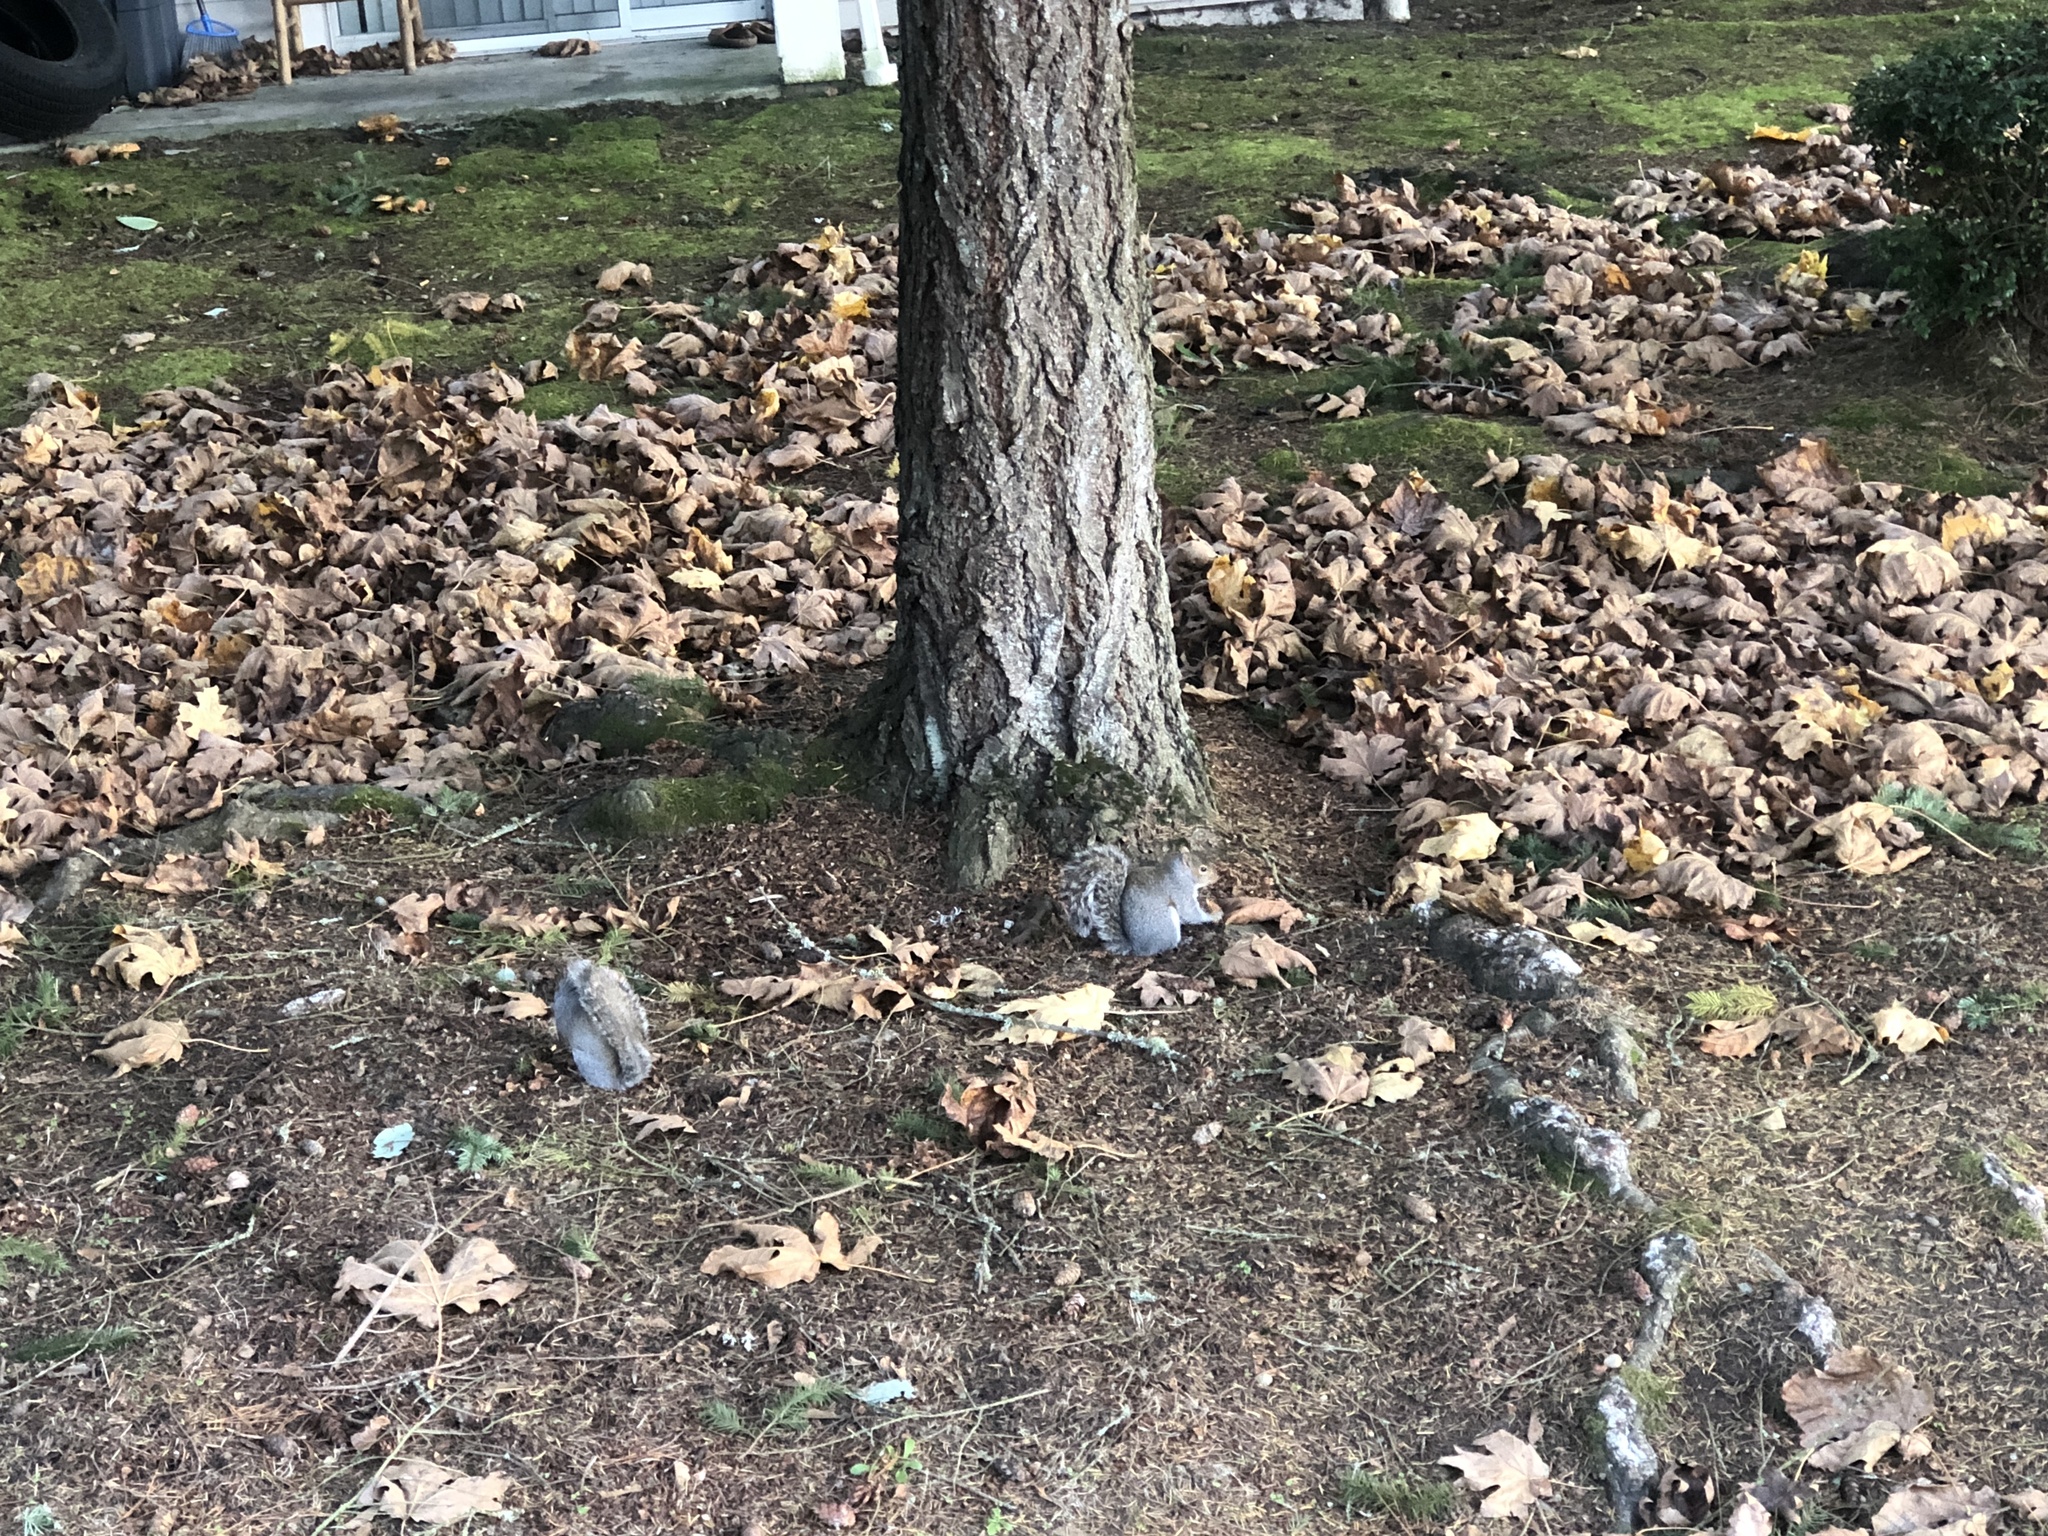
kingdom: Animalia
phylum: Chordata
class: Mammalia
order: Rodentia
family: Sciuridae
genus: Sciurus
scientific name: Sciurus carolinensis
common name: Eastern gray squirrel
